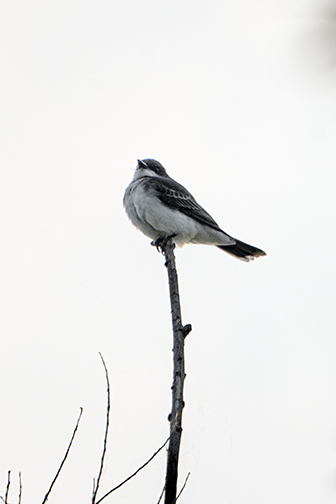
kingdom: Animalia
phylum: Chordata
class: Aves
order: Passeriformes
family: Tyrannidae
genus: Tyrannus
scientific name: Tyrannus tyrannus
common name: Eastern kingbird
